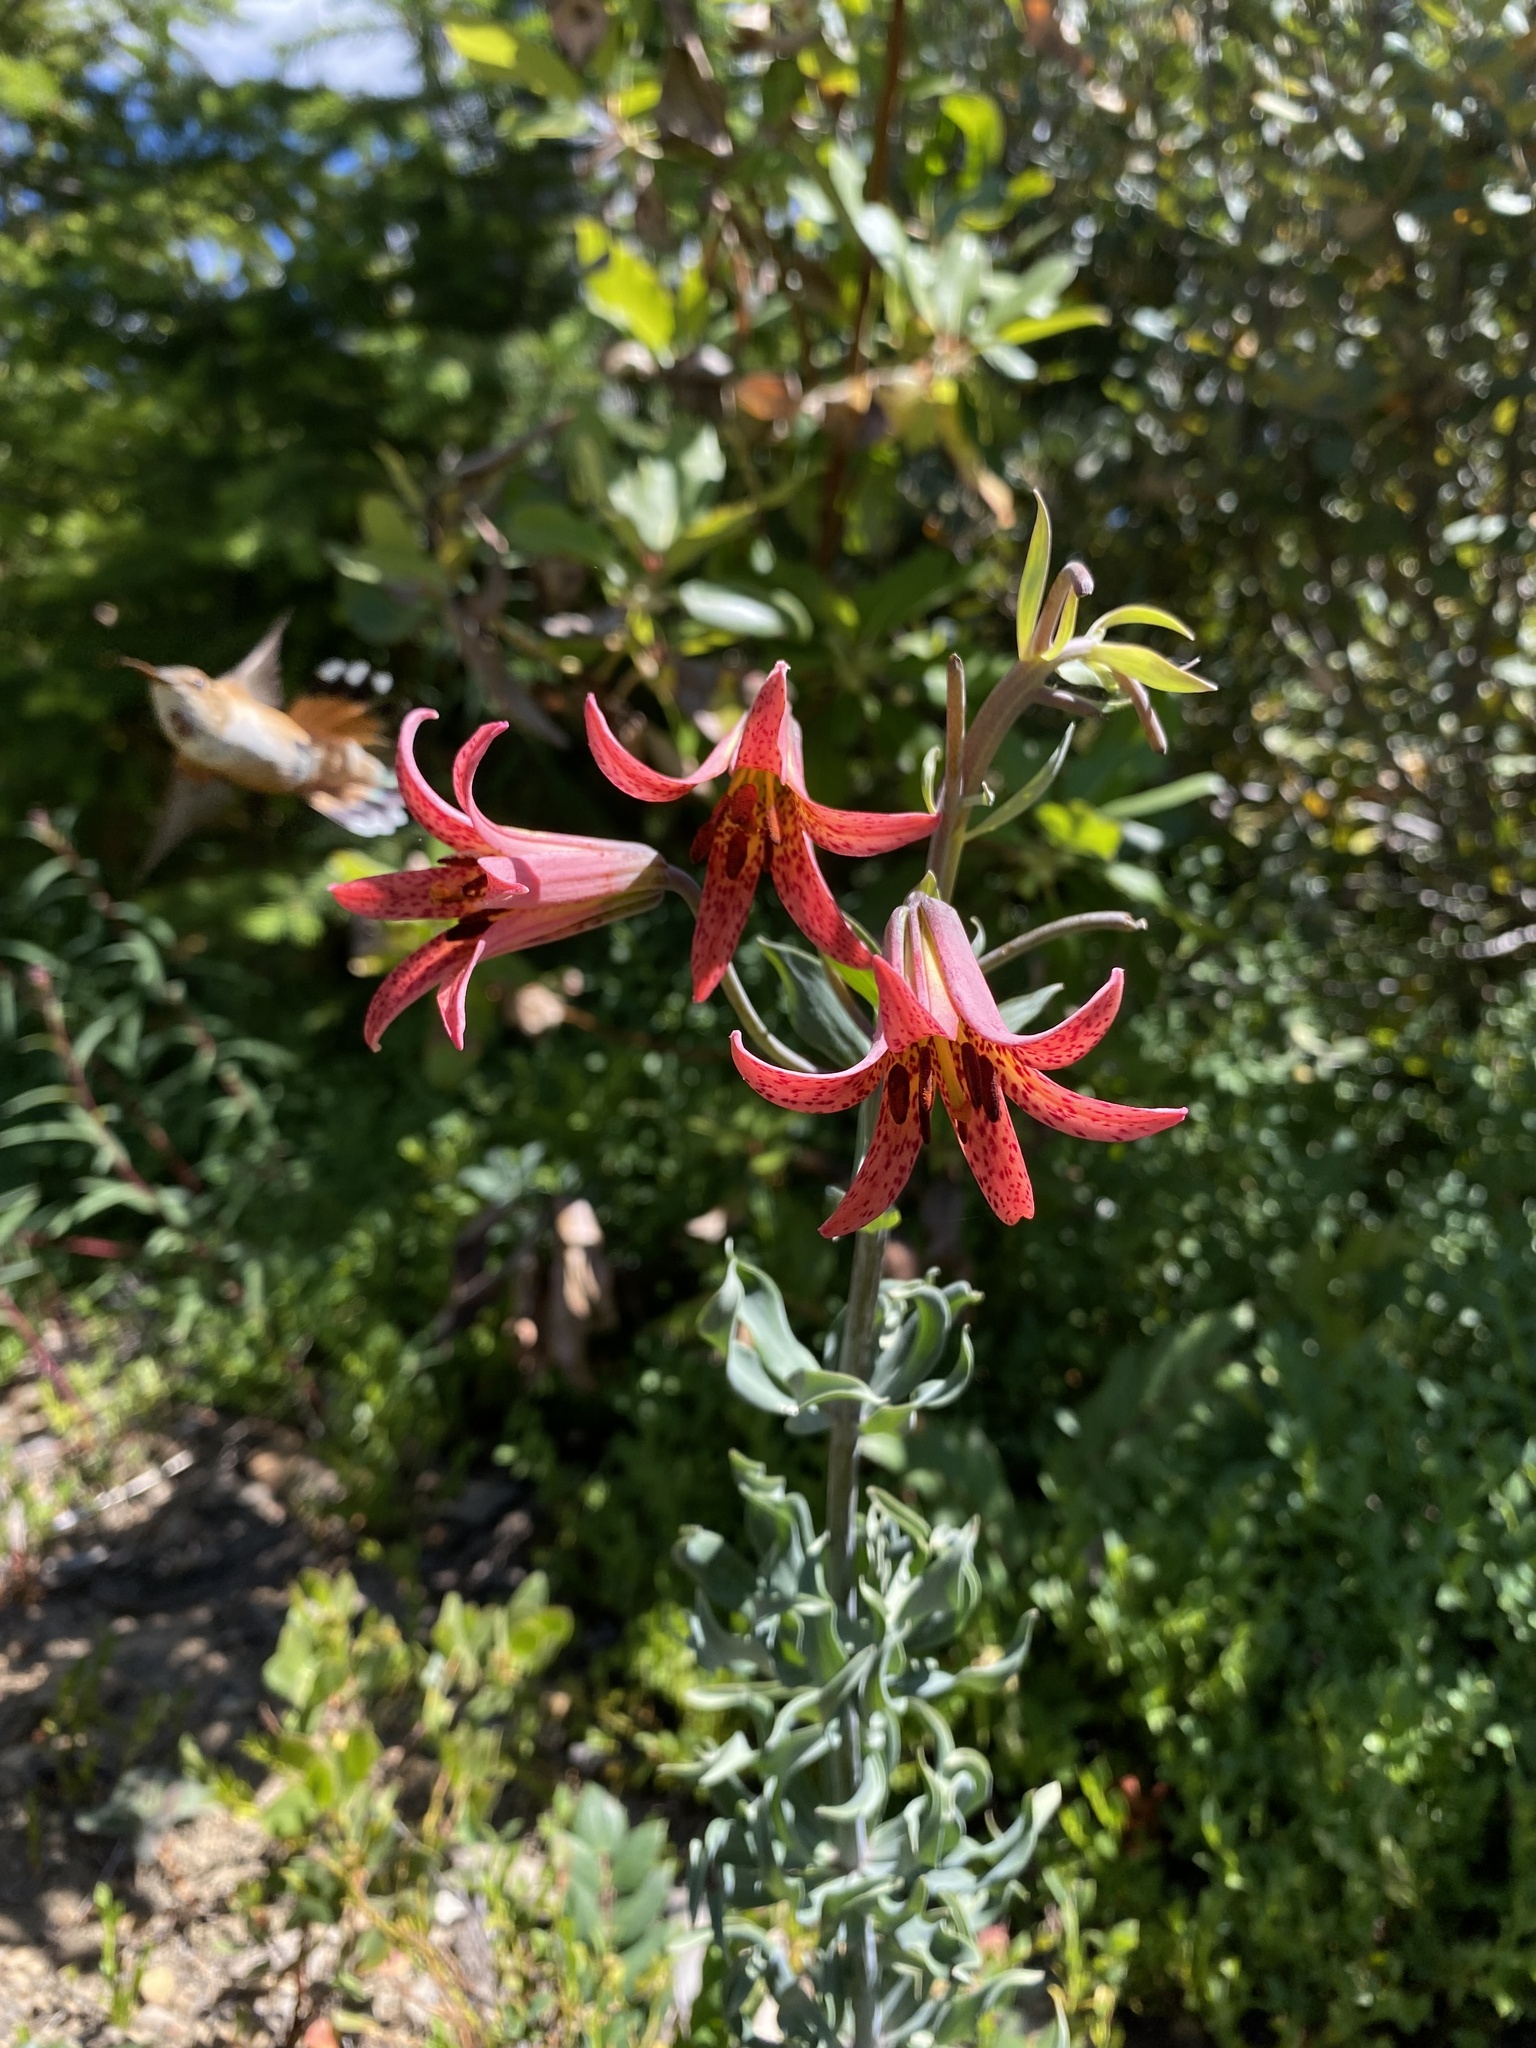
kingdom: Plantae
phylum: Tracheophyta
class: Liliopsida
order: Liliales
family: Liliaceae
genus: Lilium
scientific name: Lilium bolanderi
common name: Bolander's lily
